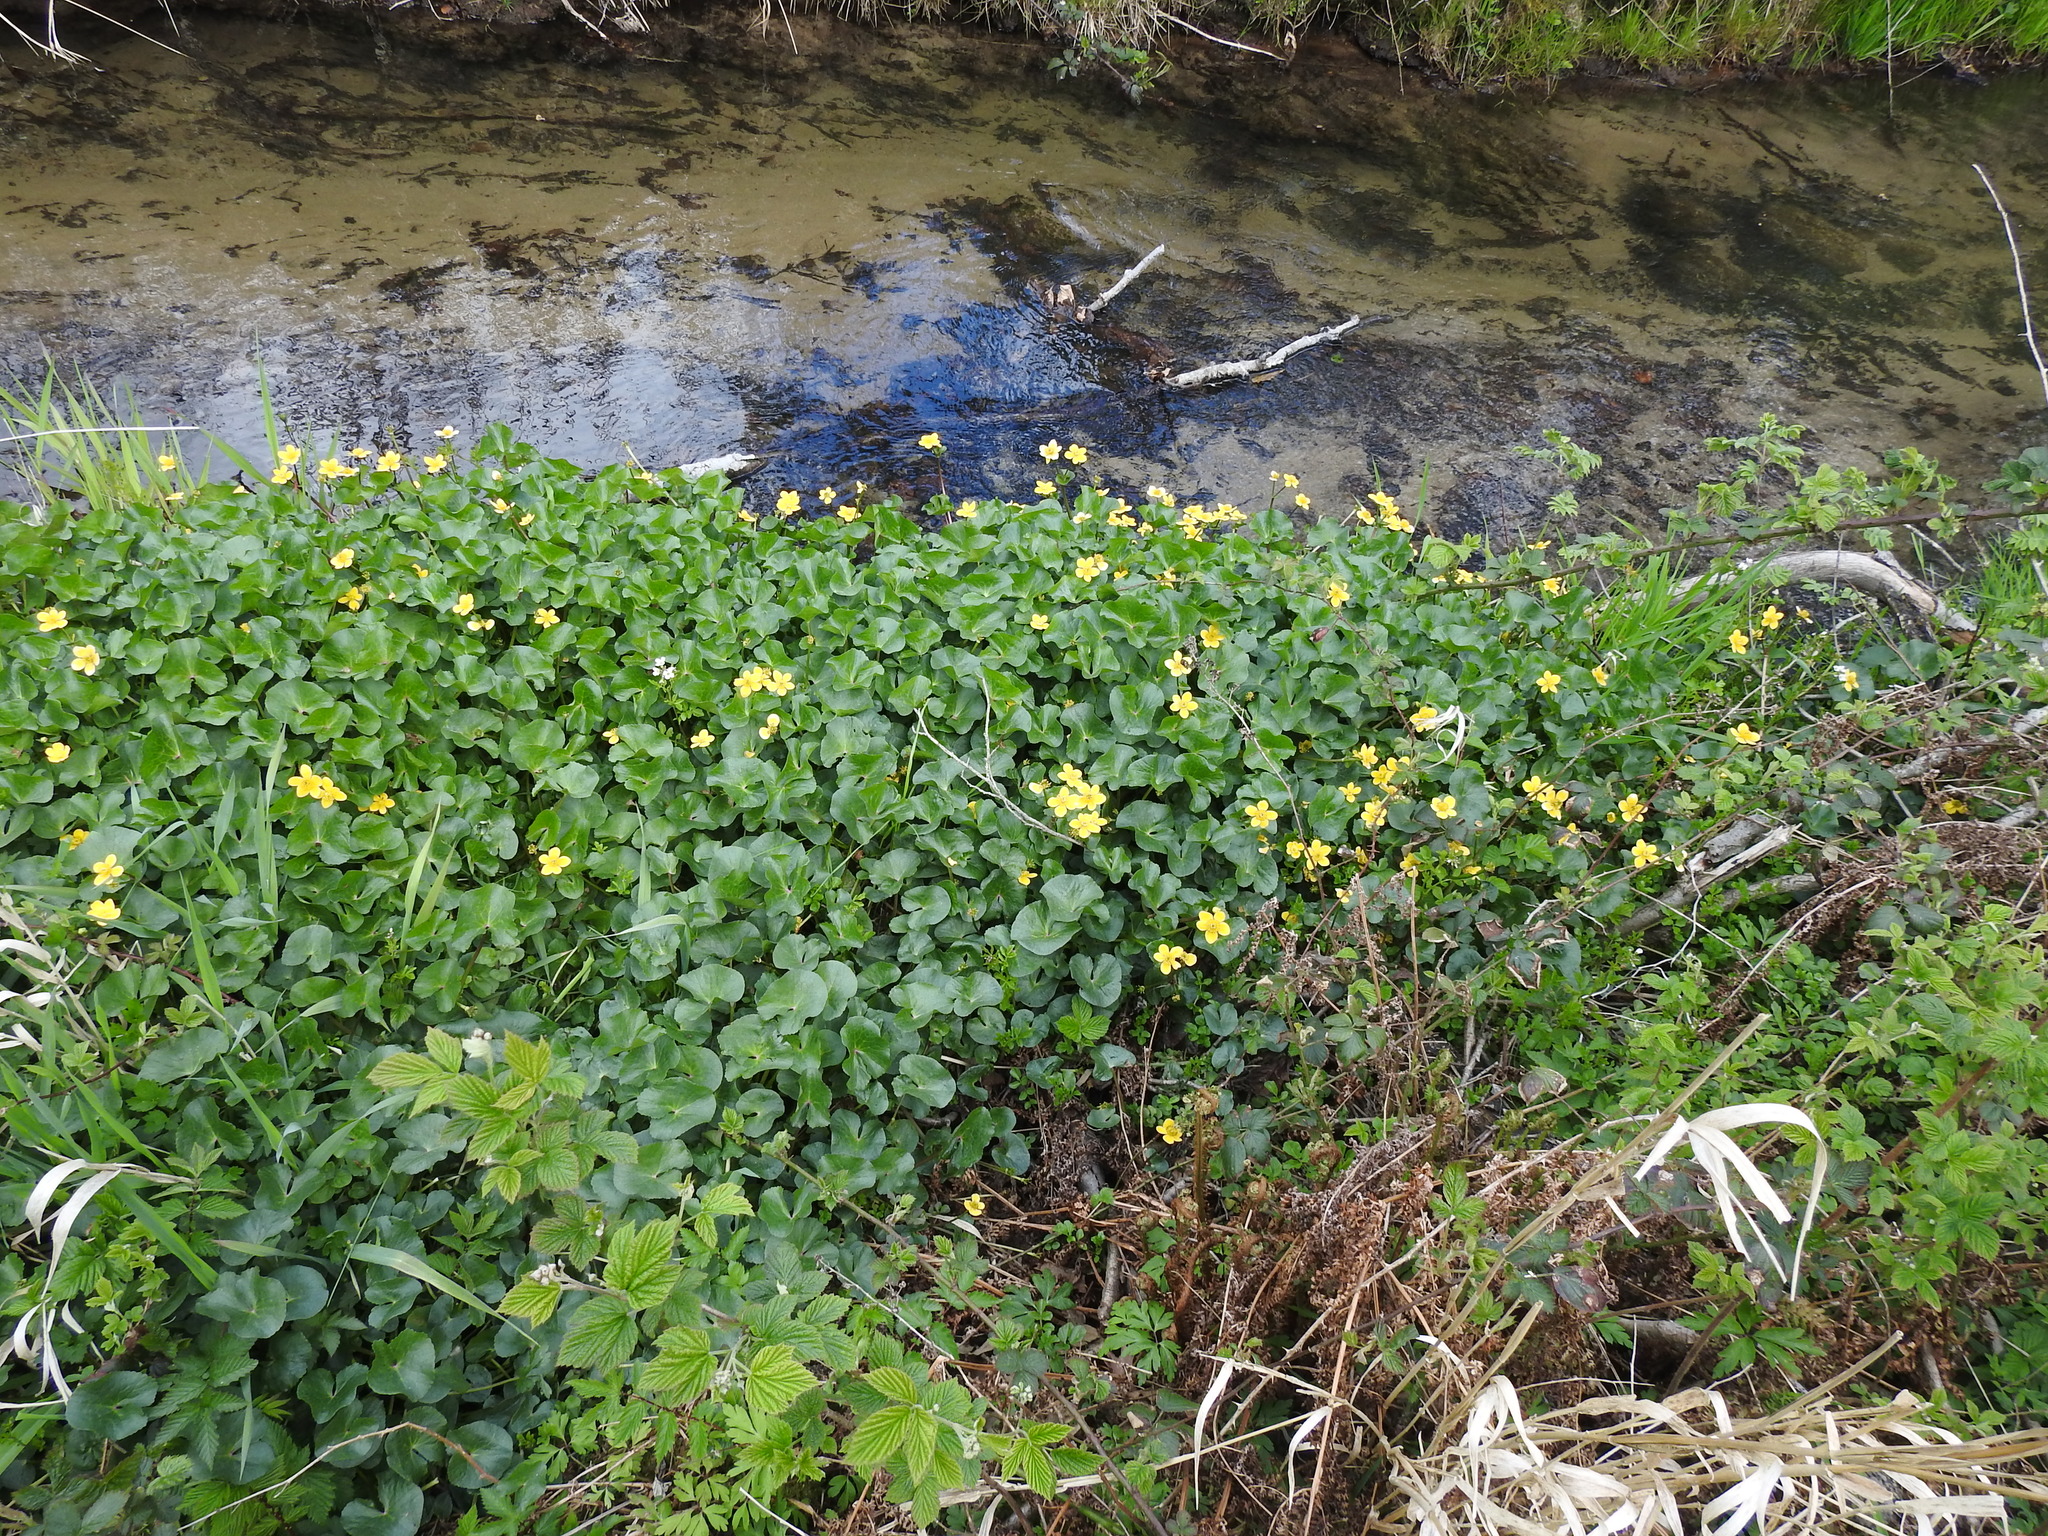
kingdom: Plantae
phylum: Tracheophyta
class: Magnoliopsida
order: Ranunculales
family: Ranunculaceae
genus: Caltha
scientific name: Caltha palustris
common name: Marsh marigold
